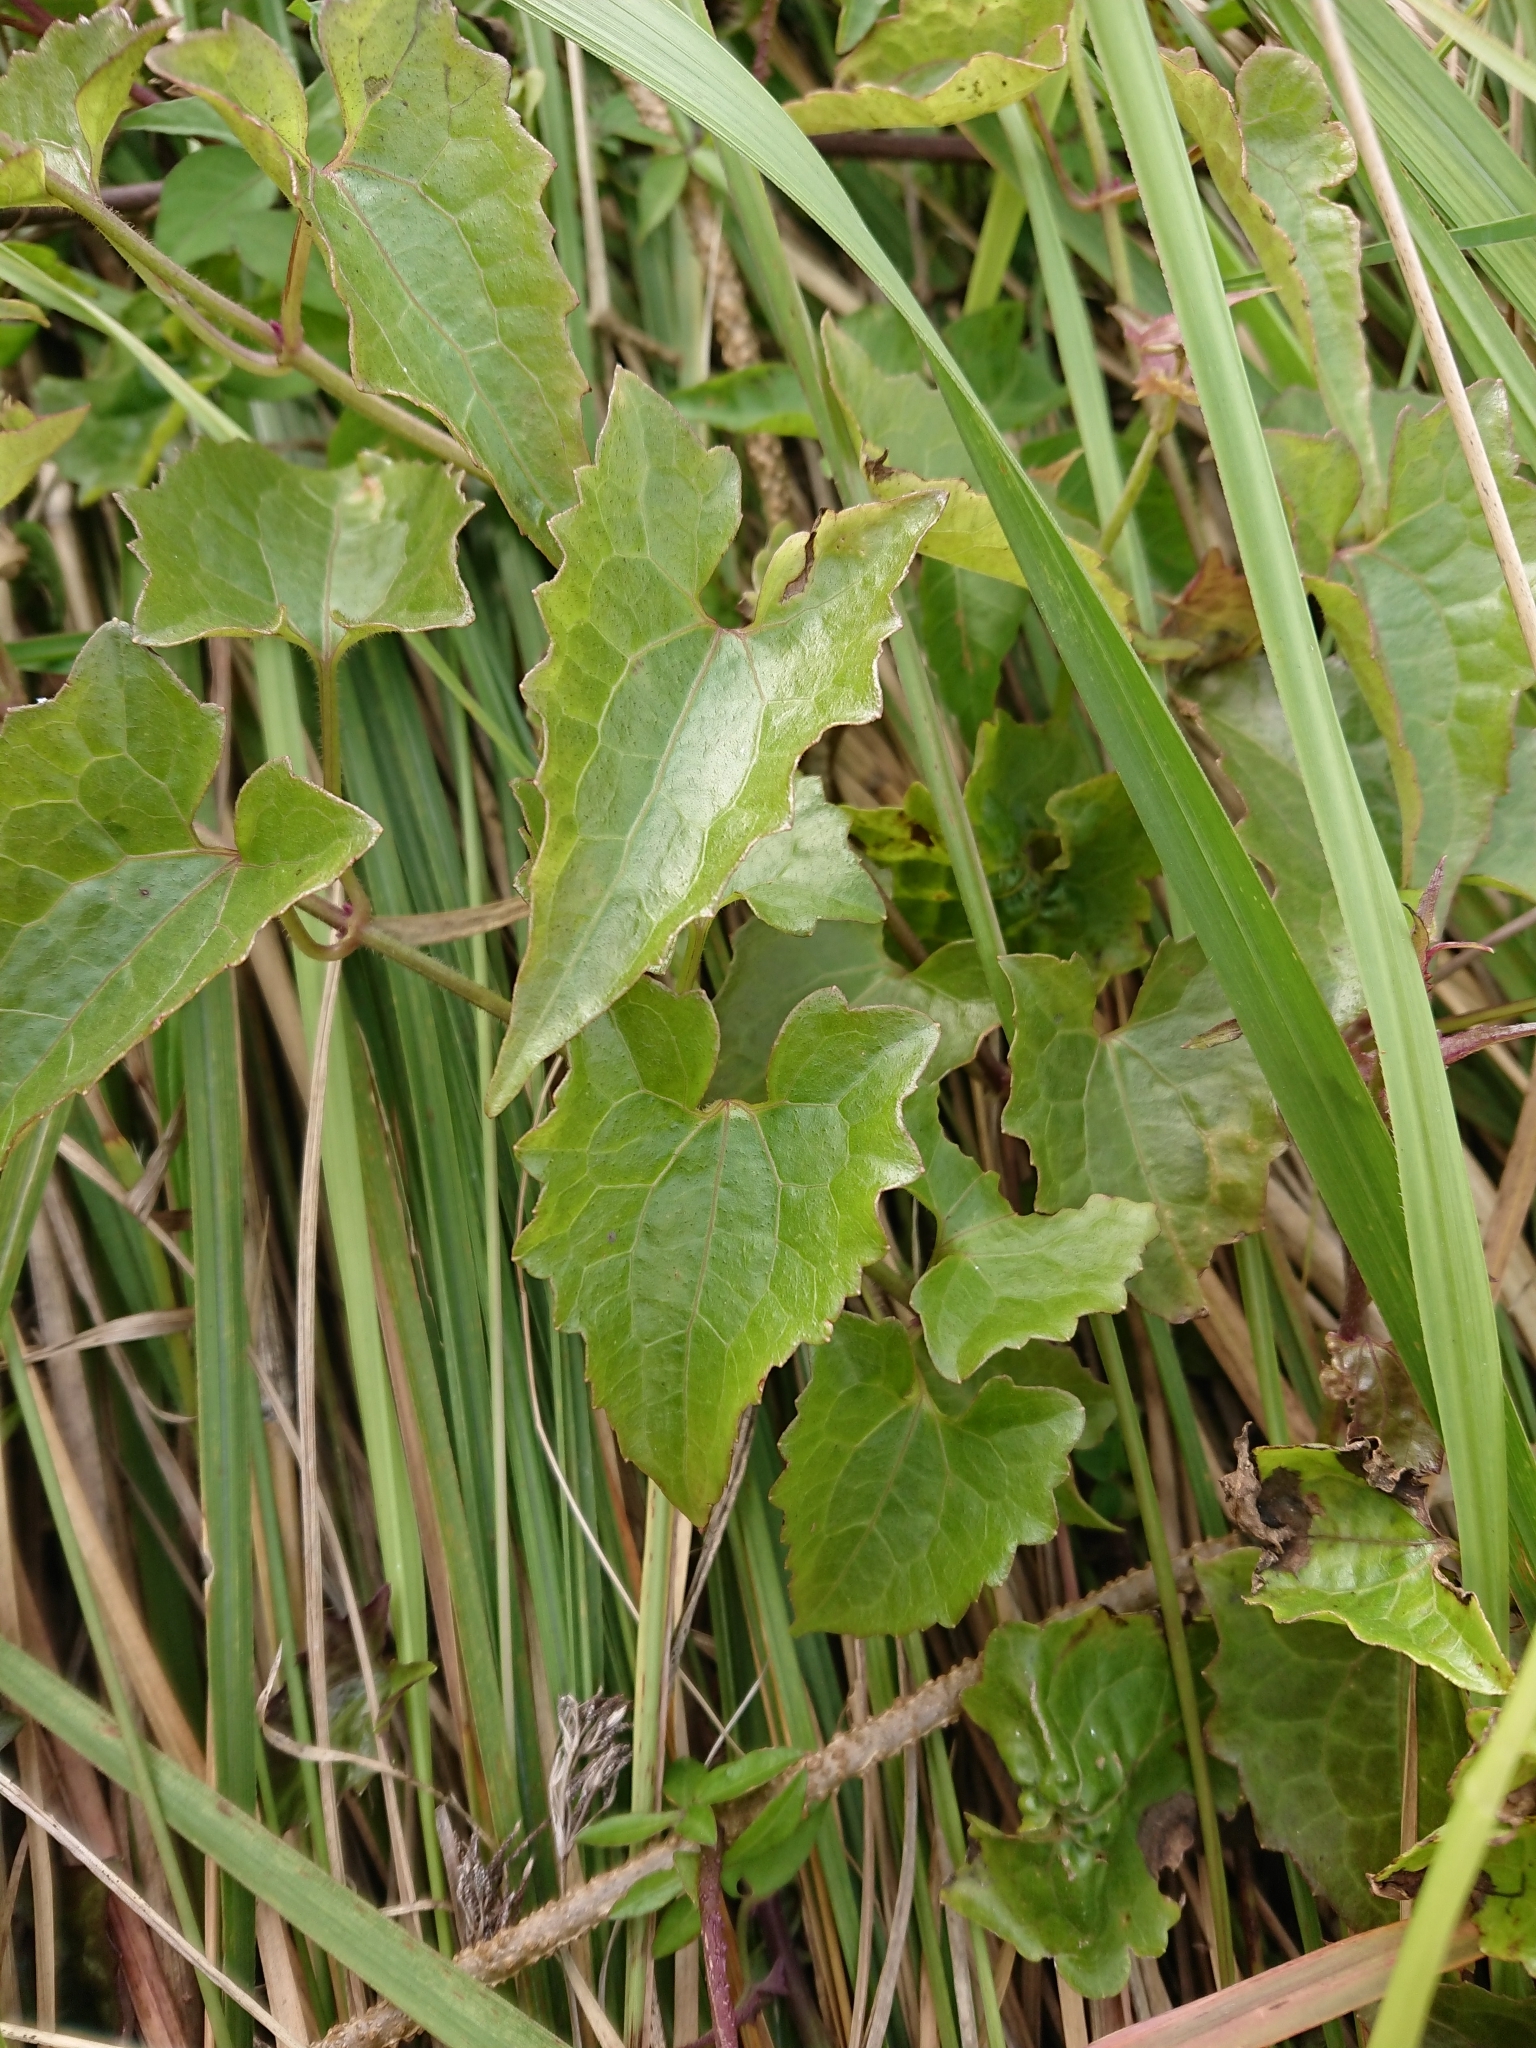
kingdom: Plantae
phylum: Tracheophyta
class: Magnoliopsida
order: Asterales
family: Asteraceae
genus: Mikania
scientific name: Mikania micrantha
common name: Mile-a-minute
